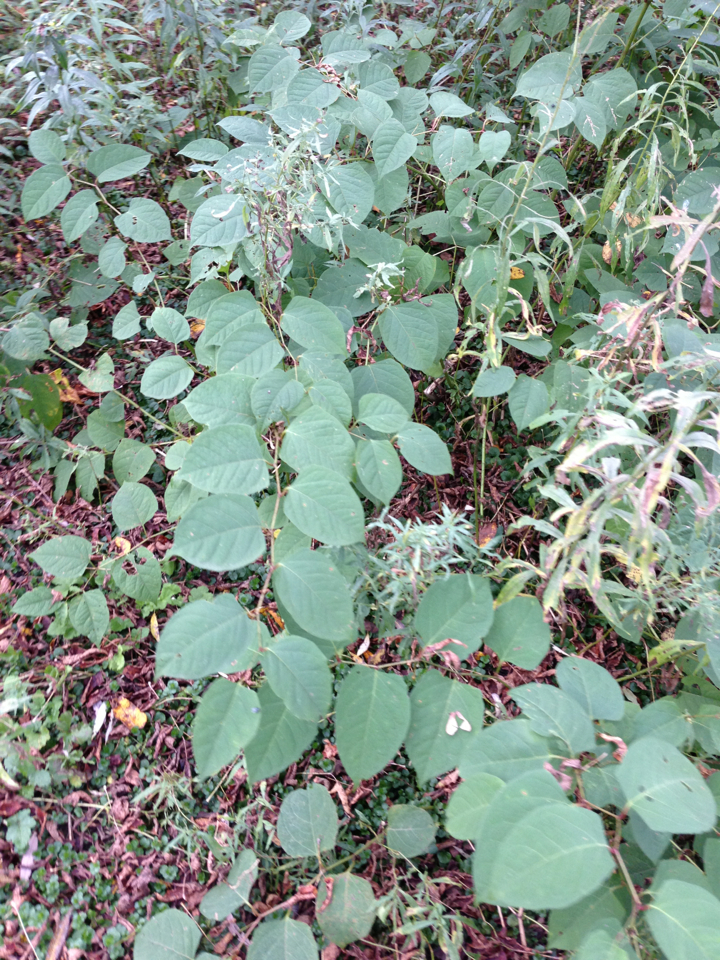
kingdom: Plantae
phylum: Tracheophyta
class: Magnoliopsida
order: Caryophyllales
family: Polygonaceae
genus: Reynoutria
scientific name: Reynoutria japonica
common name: Japanese knotweed
